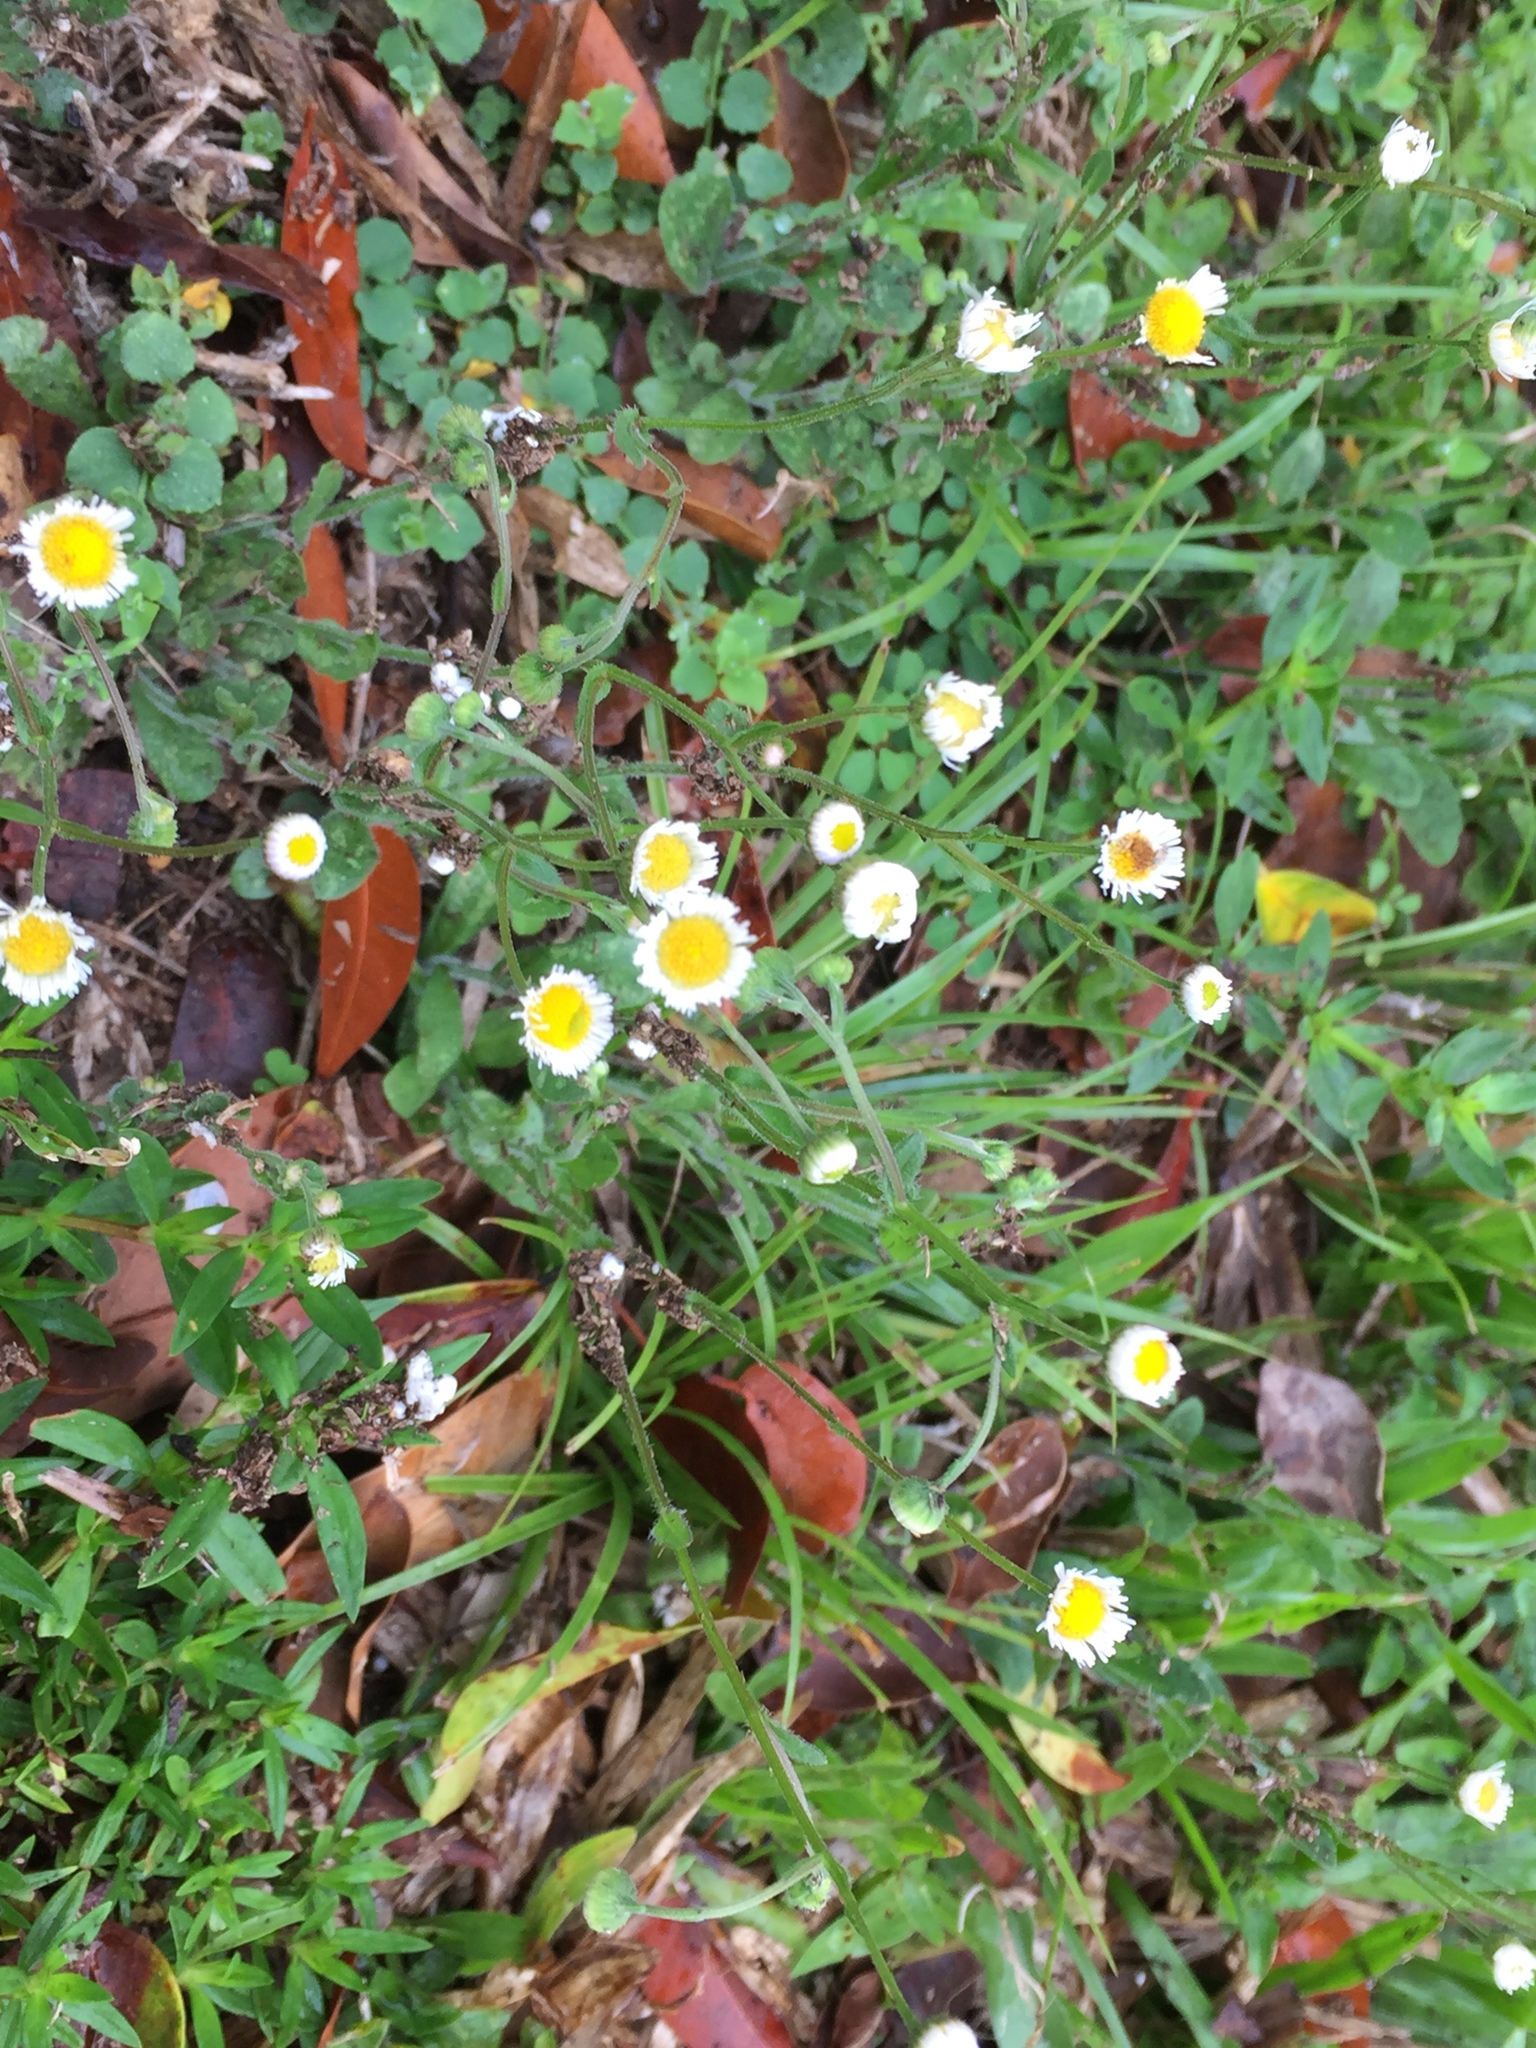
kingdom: Plantae
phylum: Tracheophyta
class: Magnoliopsida
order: Asterales
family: Asteraceae
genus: Erigeron
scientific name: Erigeron quercifolius
